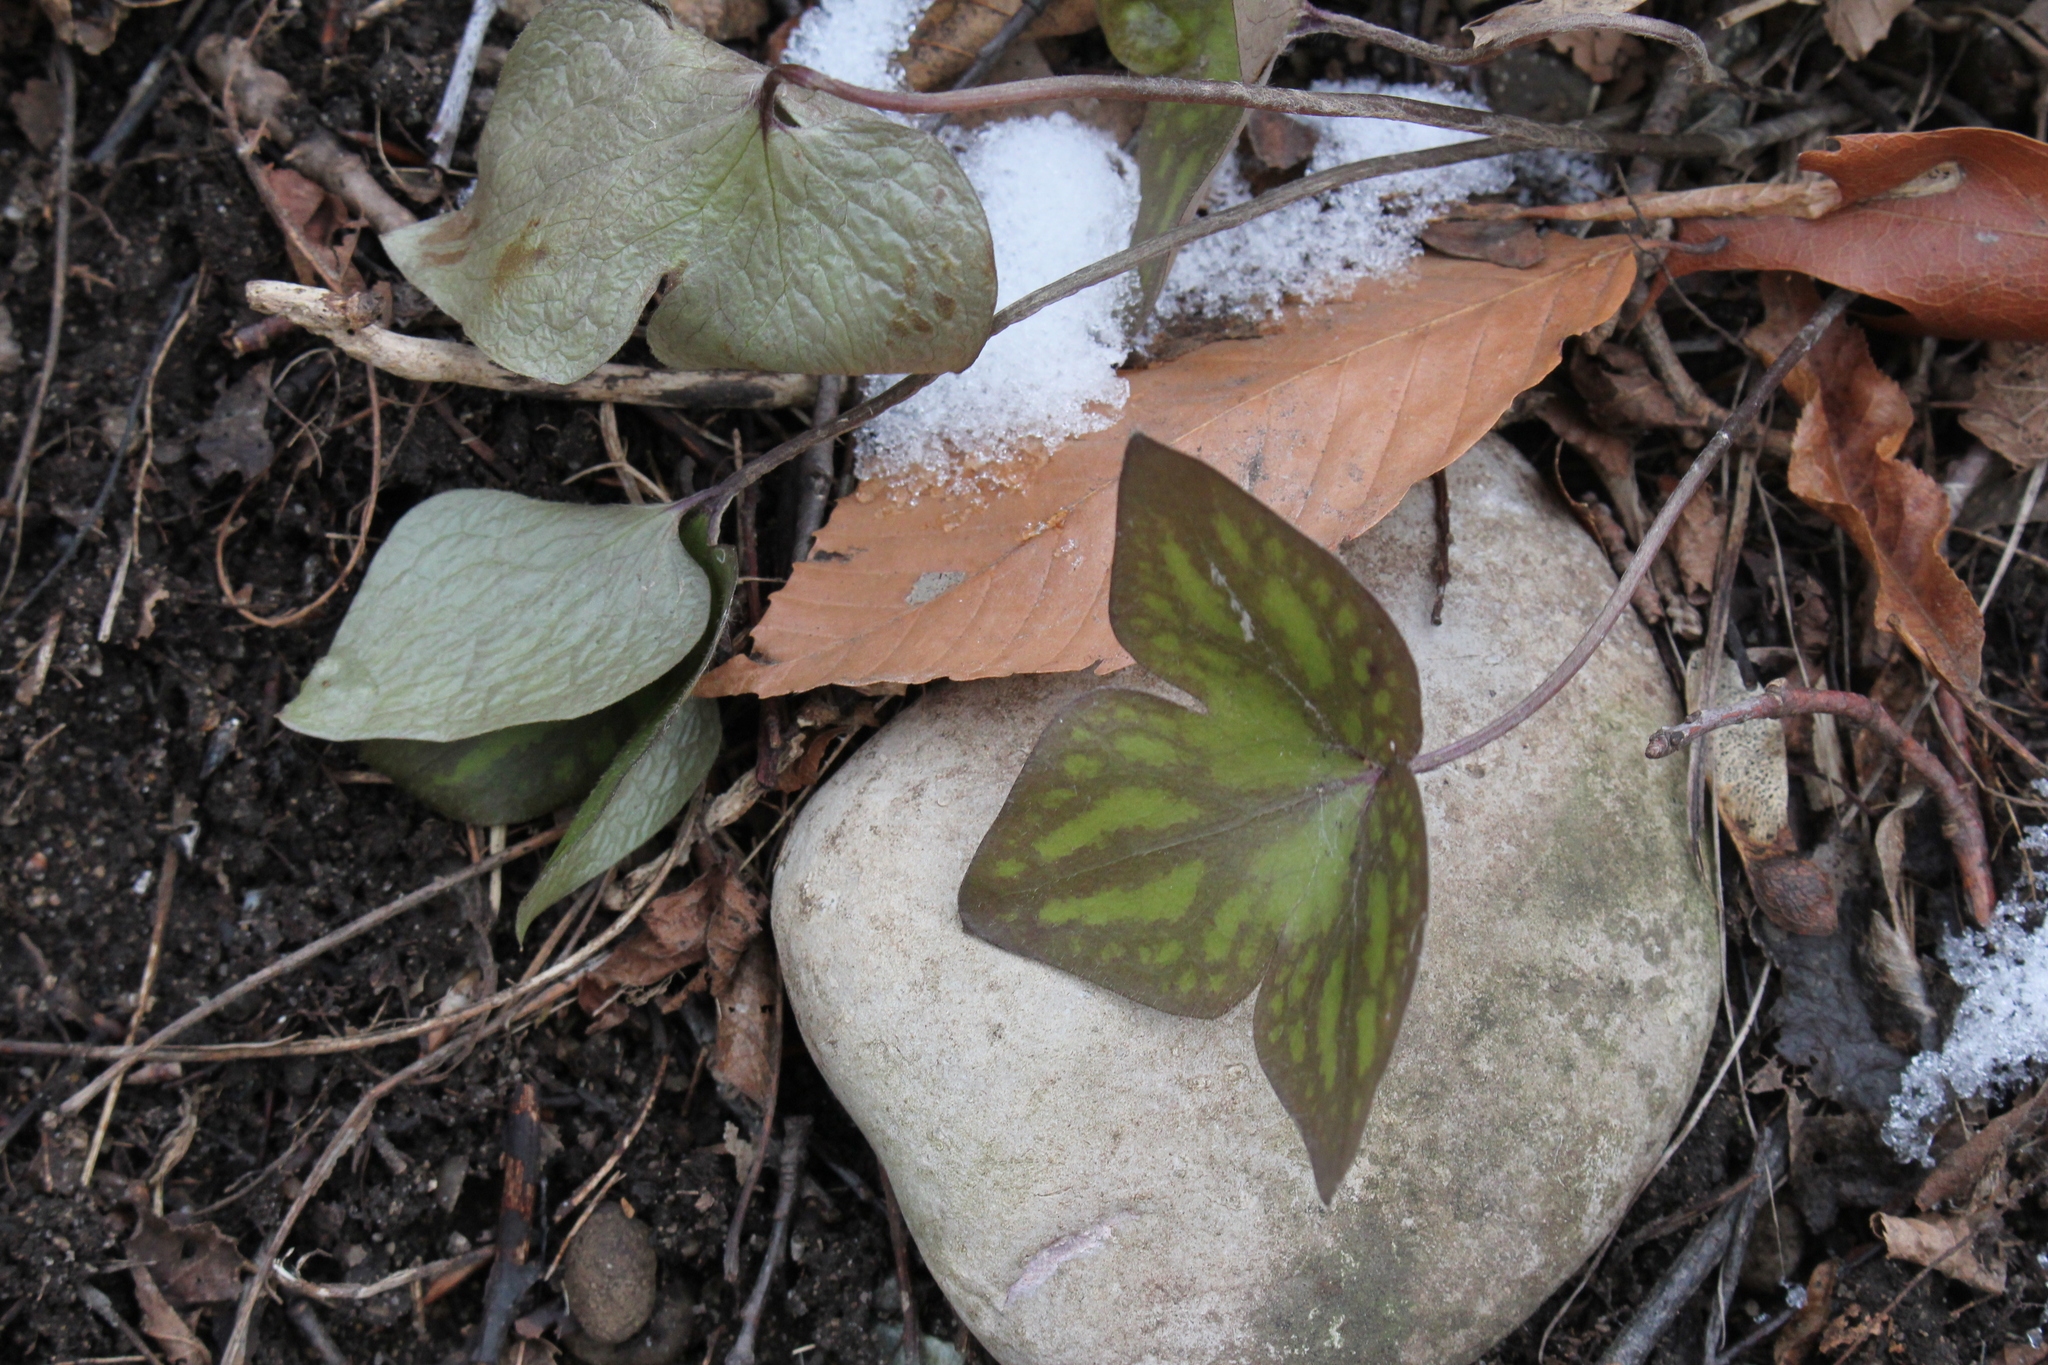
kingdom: Plantae
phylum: Tracheophyta
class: Magnoliopsida
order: Ranunculales
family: Ranunculaceae
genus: Hepatica
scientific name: Hepatica acutiloba
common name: Sharp-lobed hepatica
